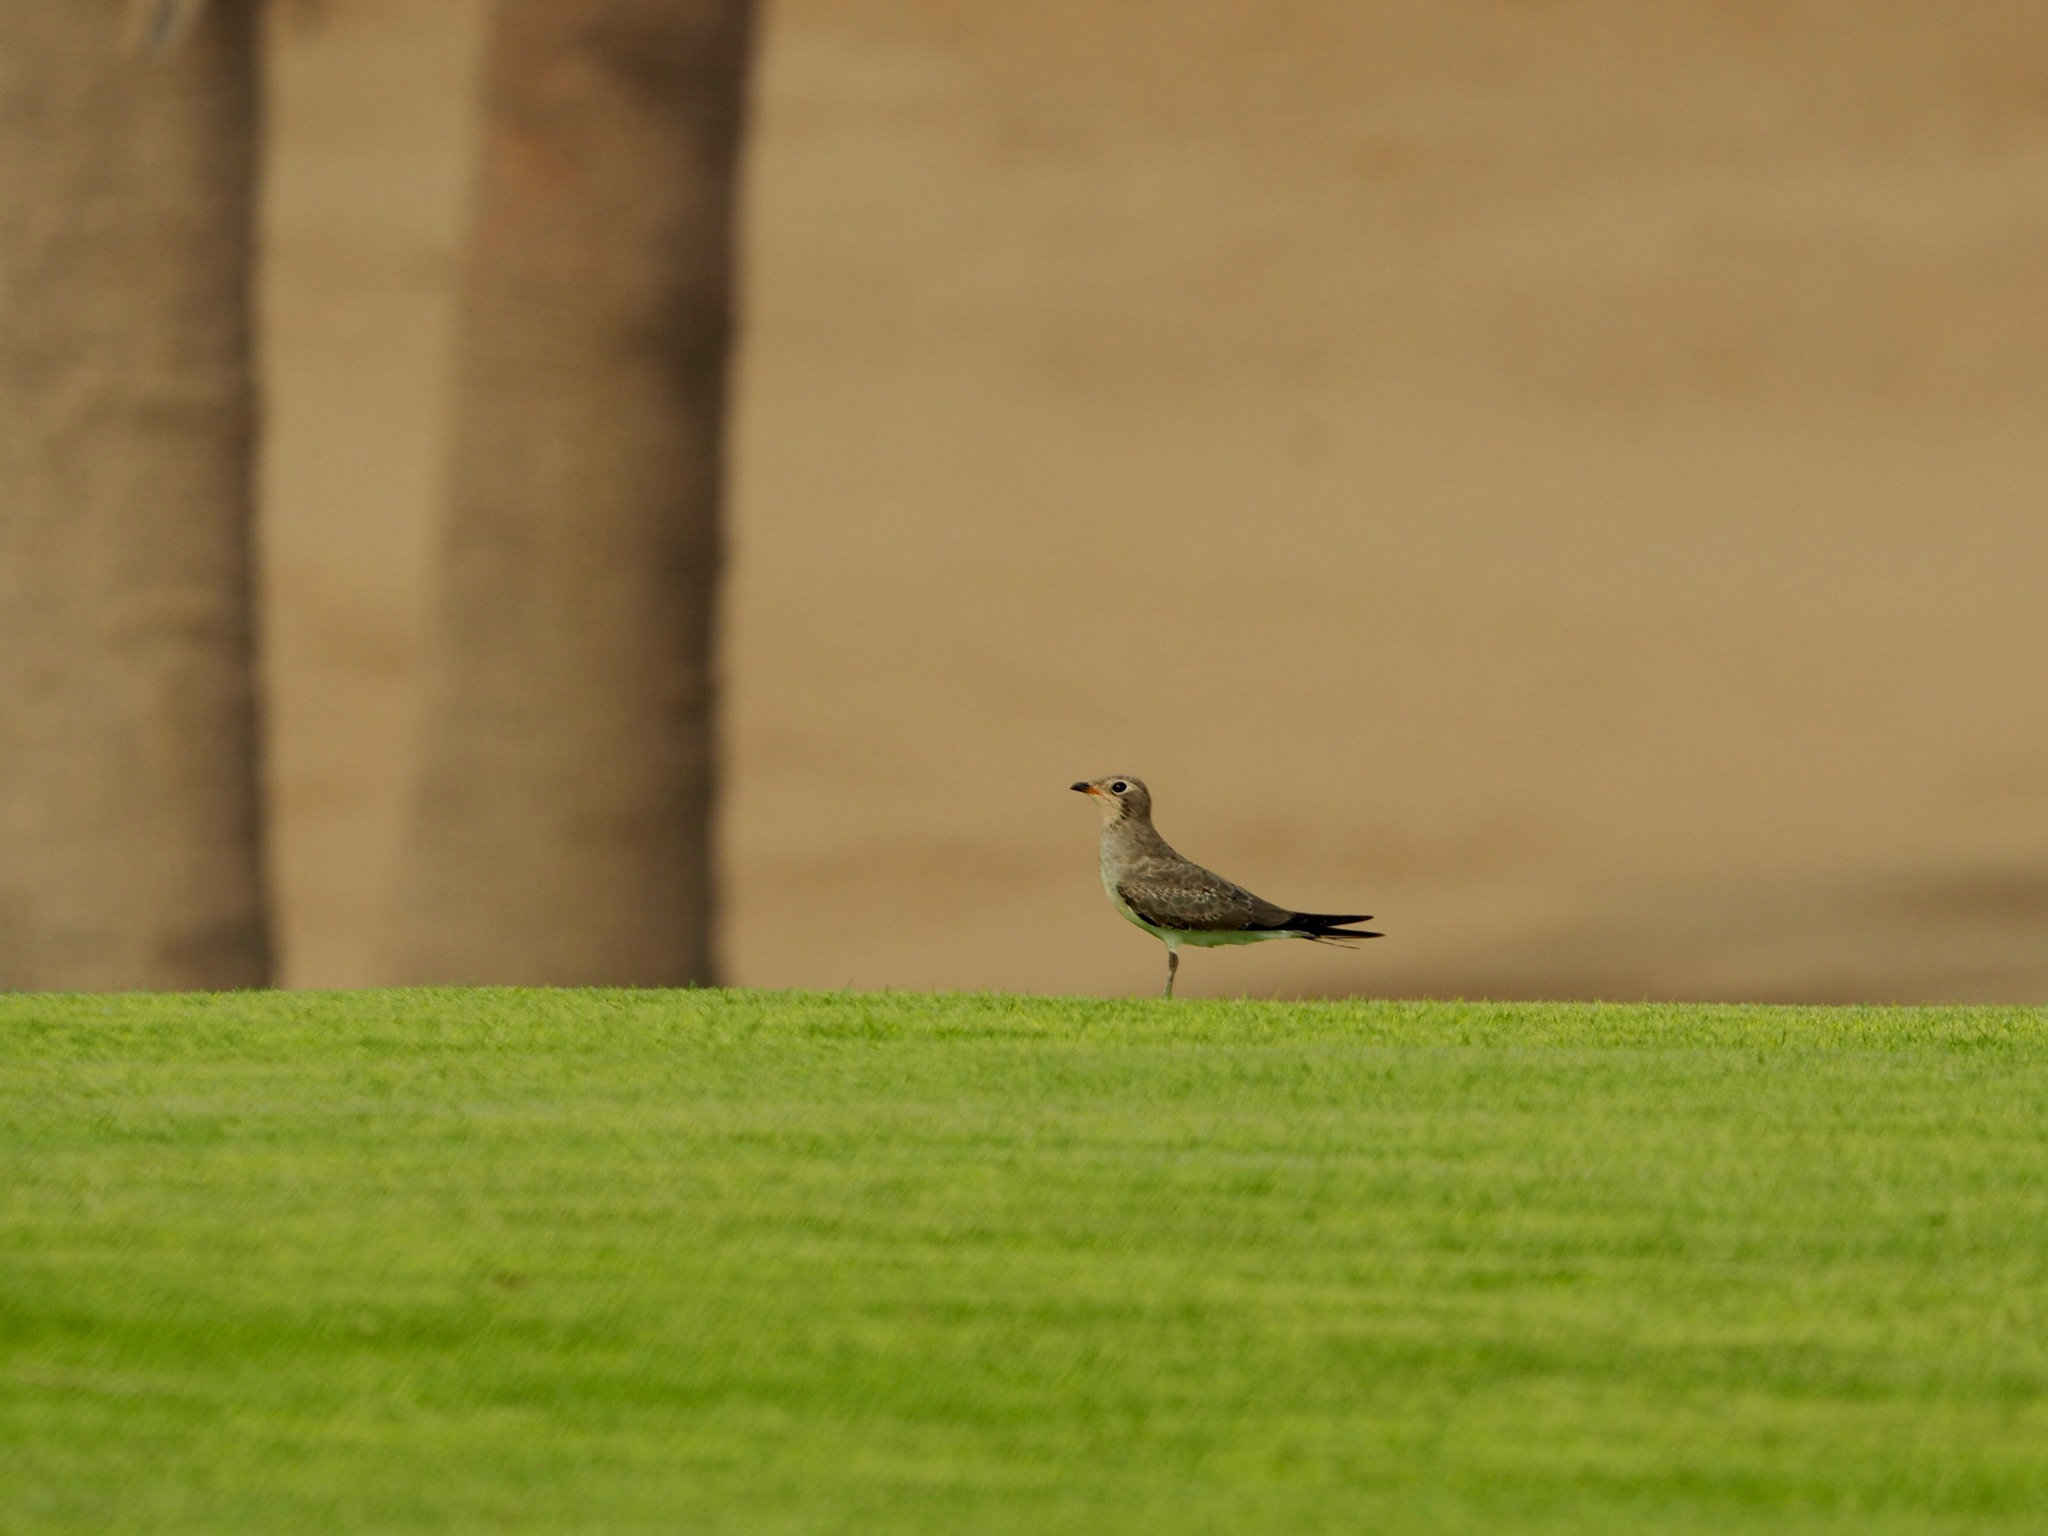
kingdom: Animalia
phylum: Chordata
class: Aves
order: Charadriiformes
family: Glareolidae
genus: Glareola
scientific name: Glareola pratincola
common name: Collared pratincole
